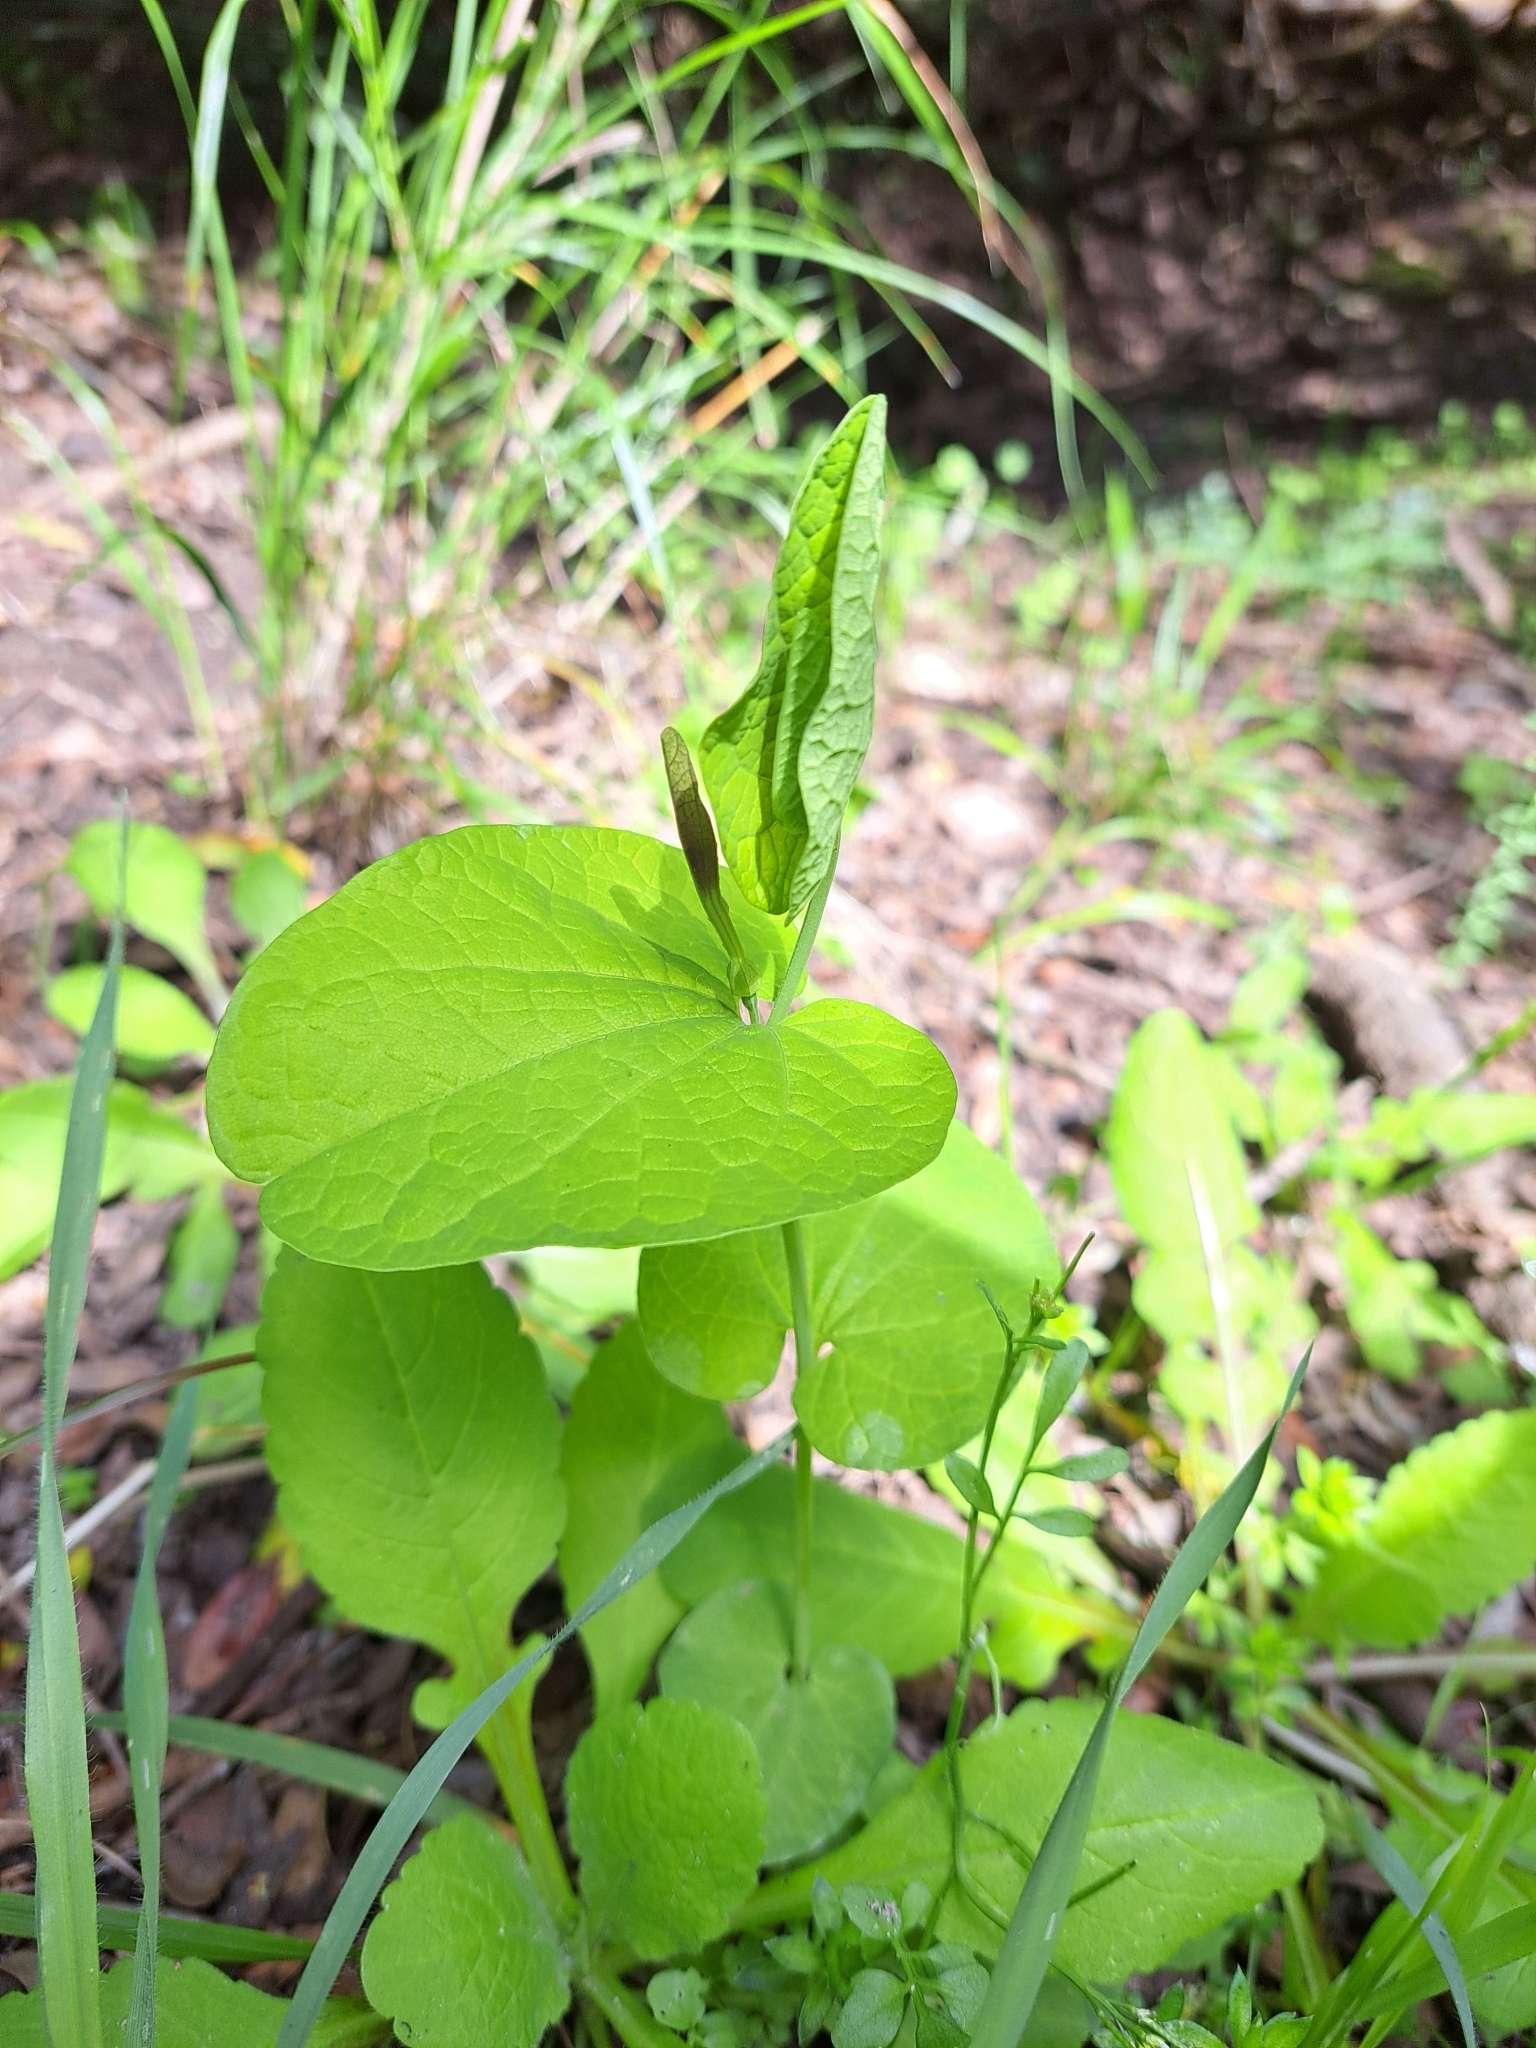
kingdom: Plantae
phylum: Tracheophyta
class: Magnoliopsida
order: Piperales
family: Aristolochiaceae
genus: Aristolochia
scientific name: Aristolochia rotunda
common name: Smearwort
